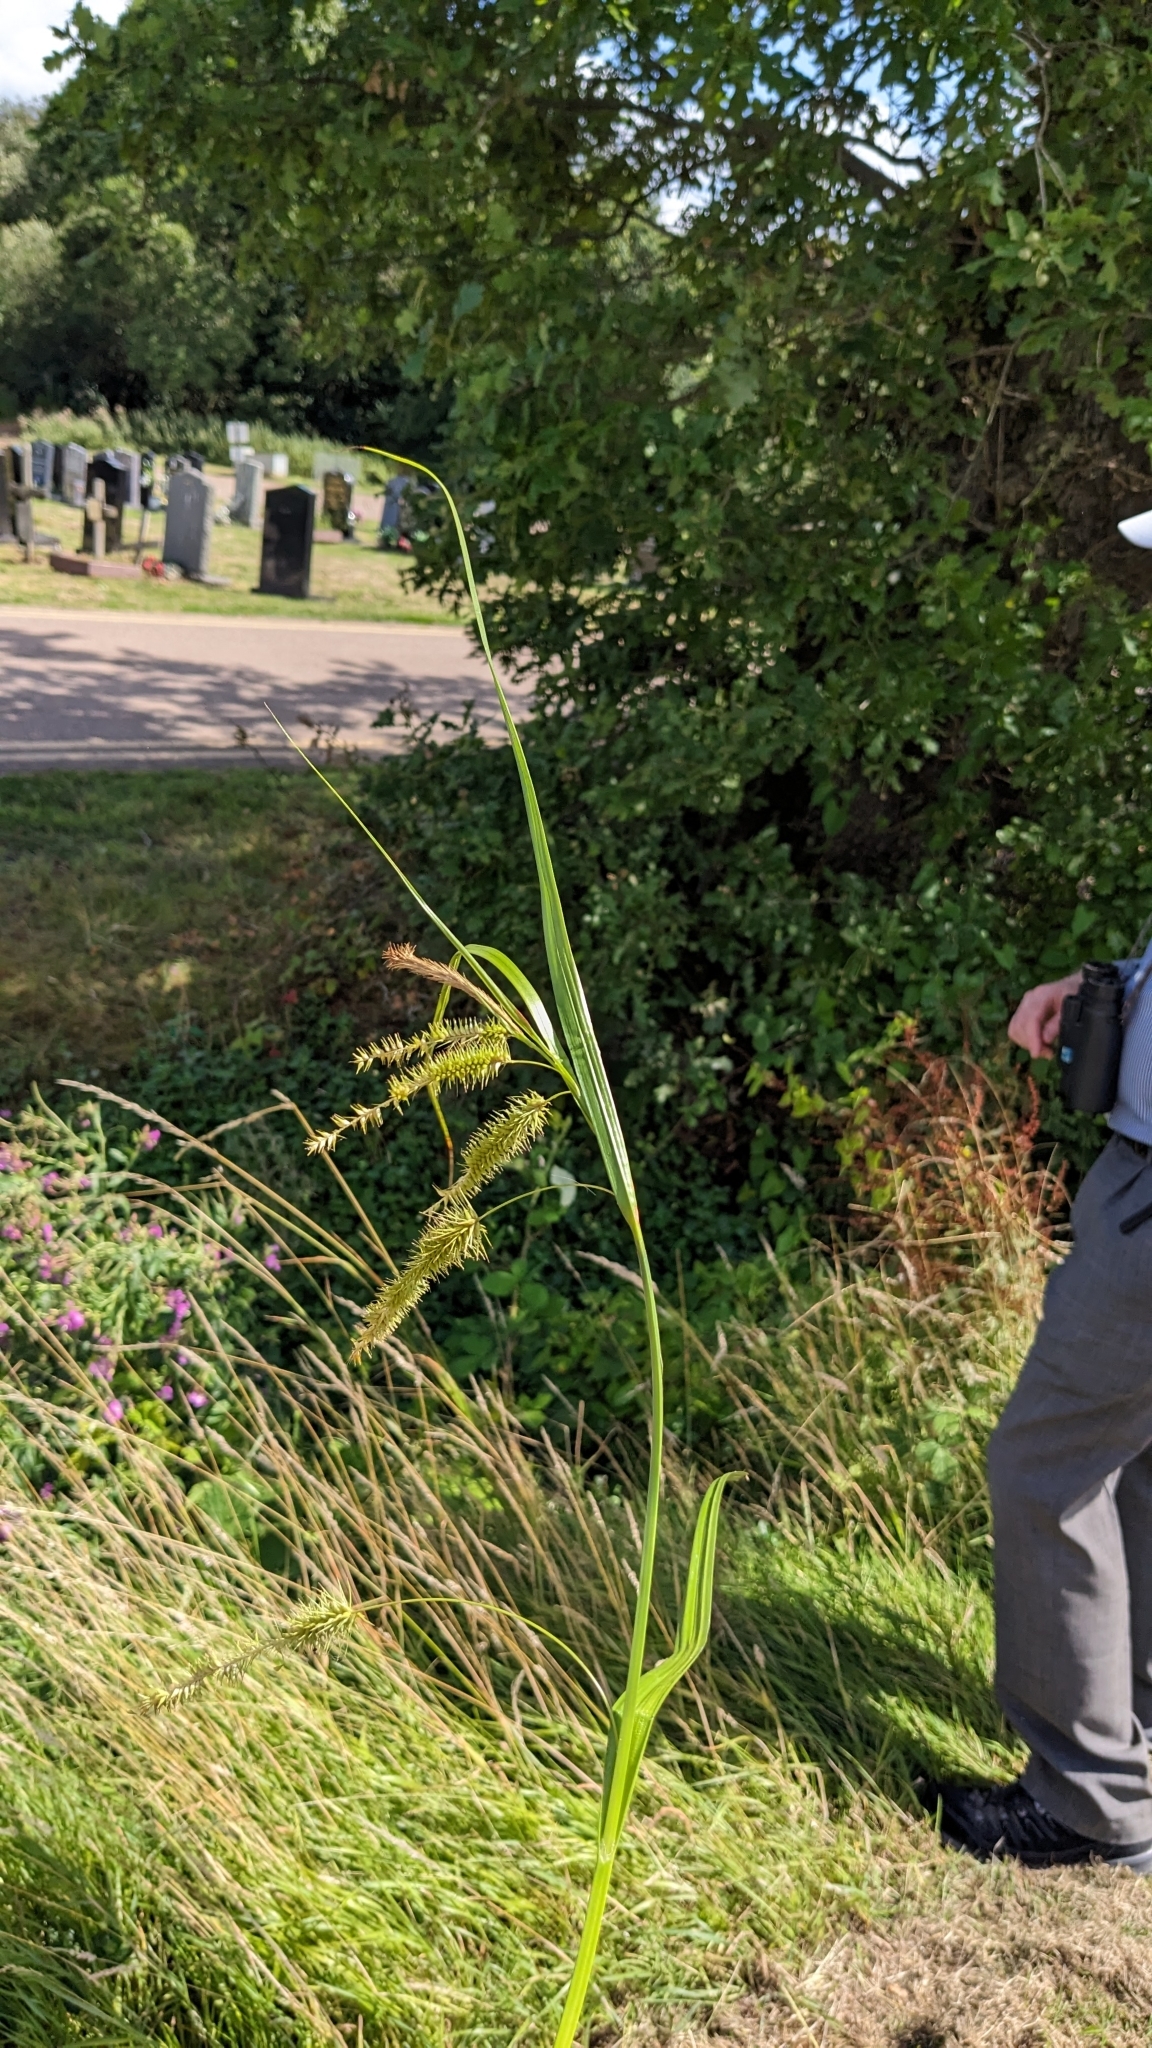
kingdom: Plantae
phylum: Tracheophyta
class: Liliopsida
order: Poales
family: Cyperaceae
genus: Carex
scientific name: Carex pseudocyperus
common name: Cyperus sedge
